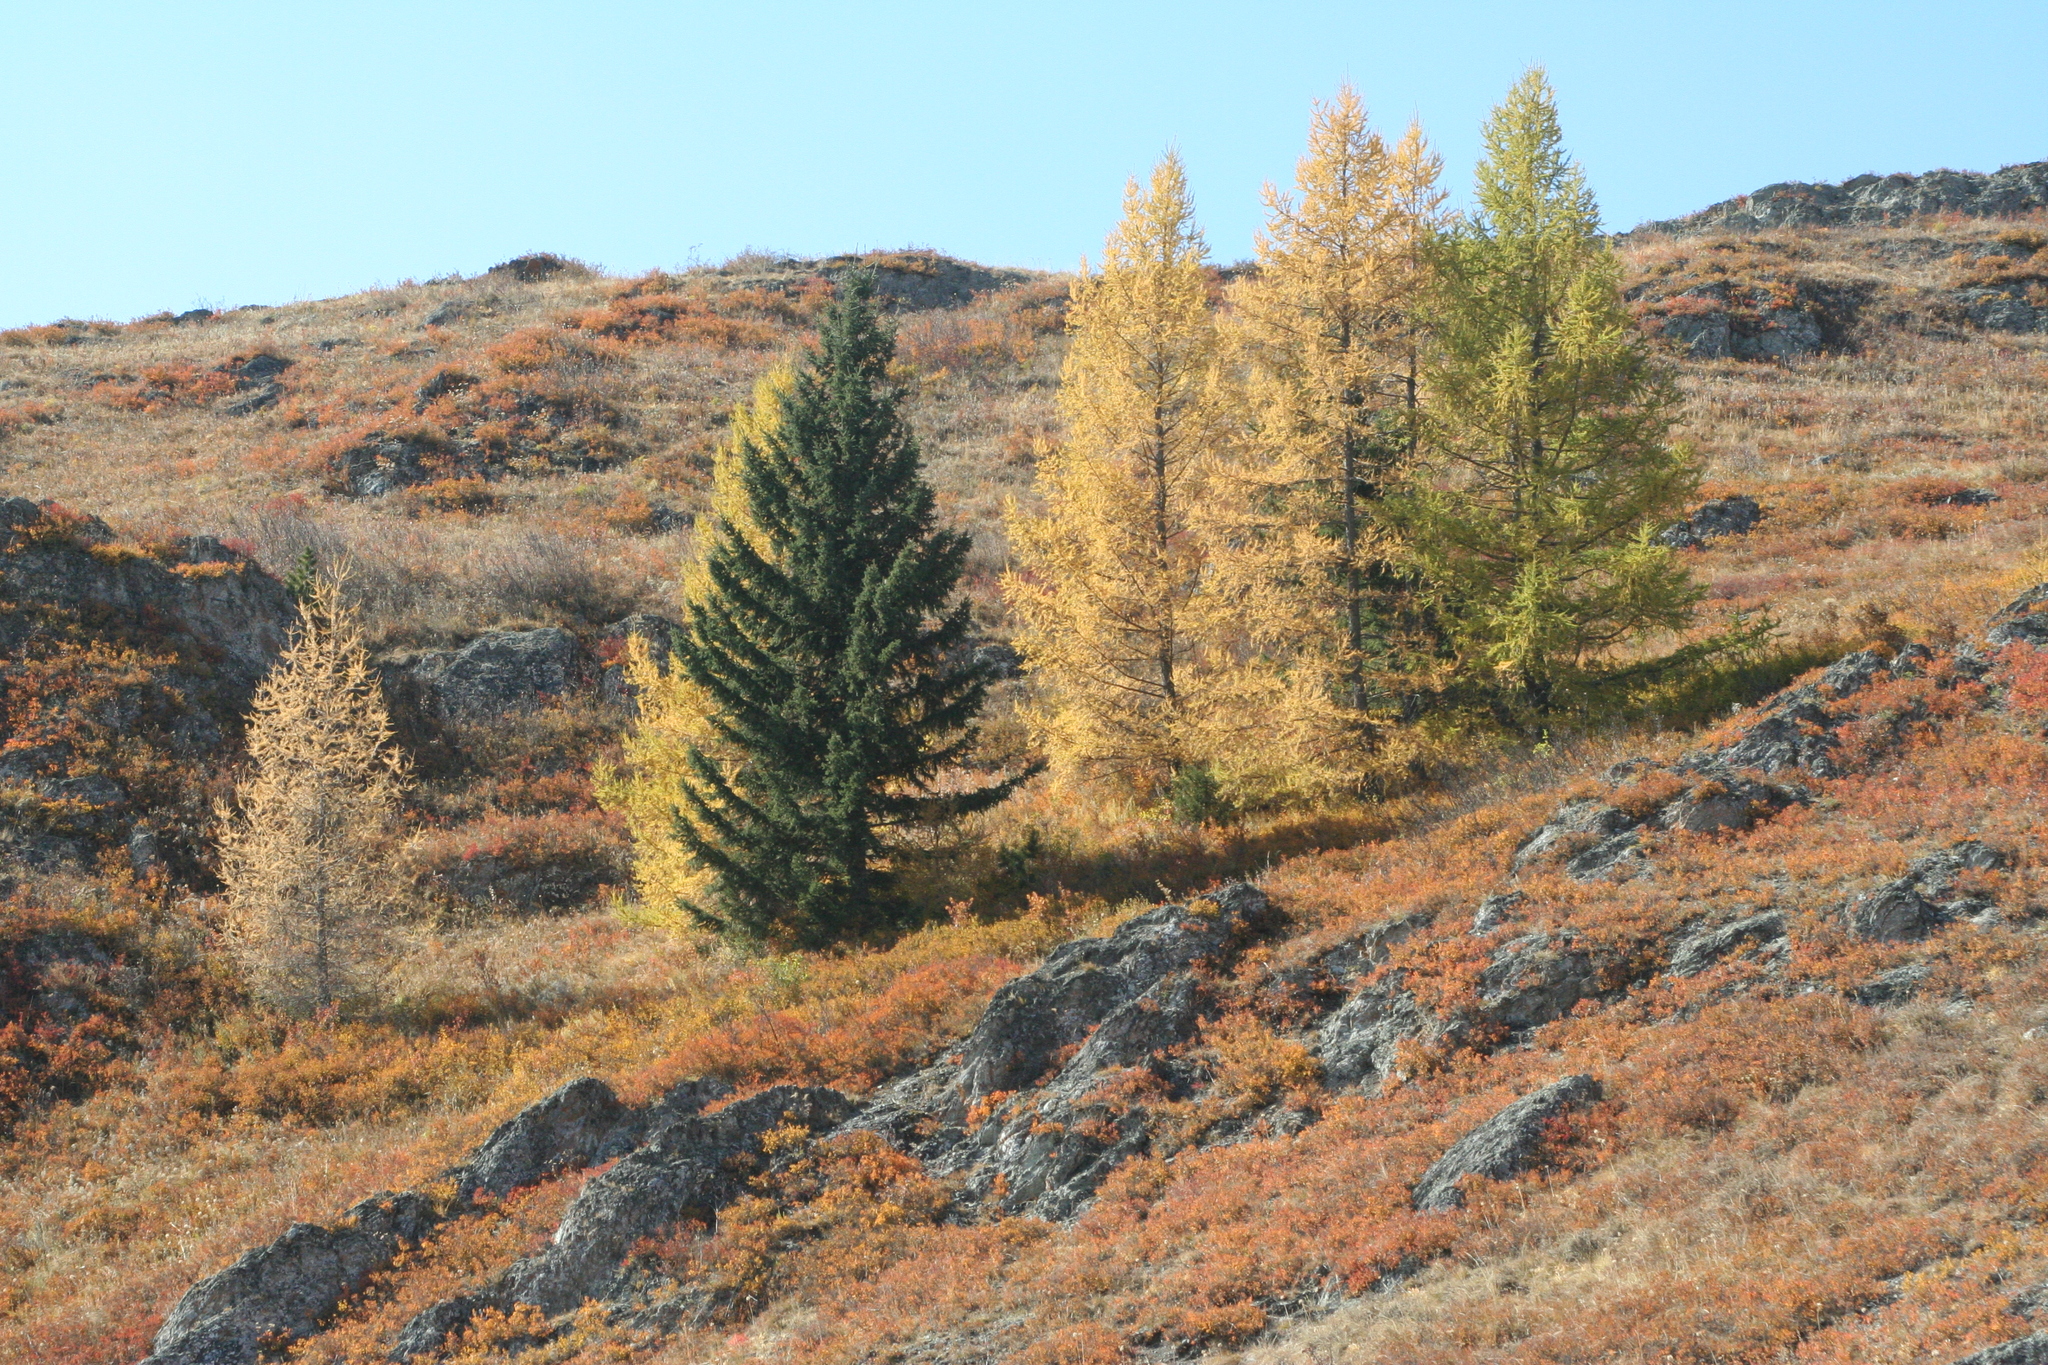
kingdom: Plantae
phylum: Tracheophyta
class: Pinopsida
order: Pinales
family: Pinaceae
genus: Picea
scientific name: Picea obovata
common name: Siberian spruce
